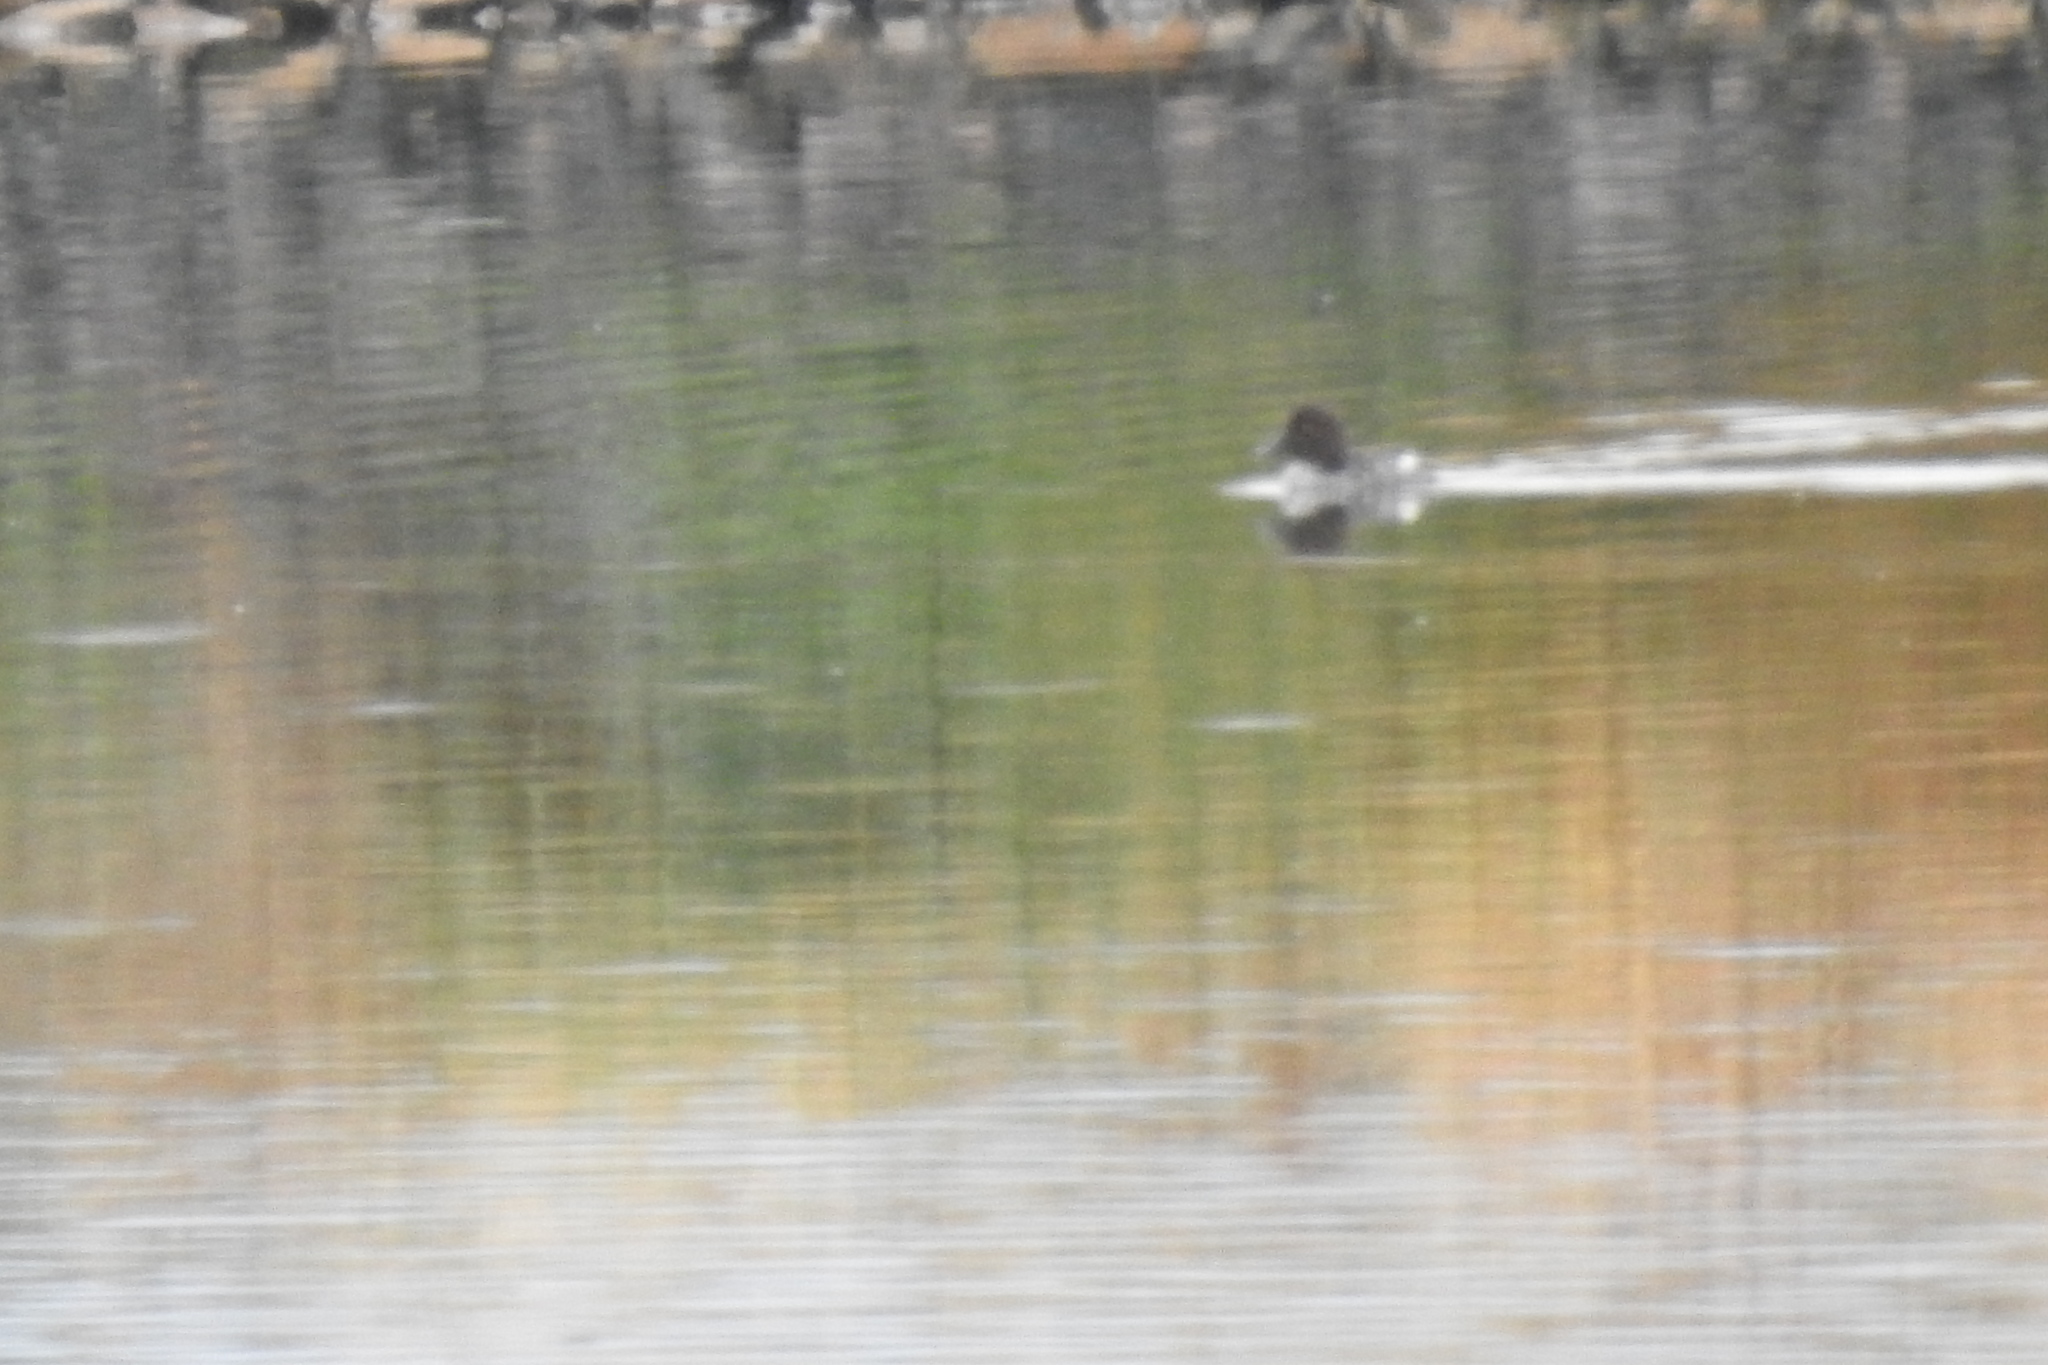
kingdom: Animalia
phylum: Chordata
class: Aves
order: Anseriformes
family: Anatidae
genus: Bucephala
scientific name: Bucephala clangula
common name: Common goldeneye
